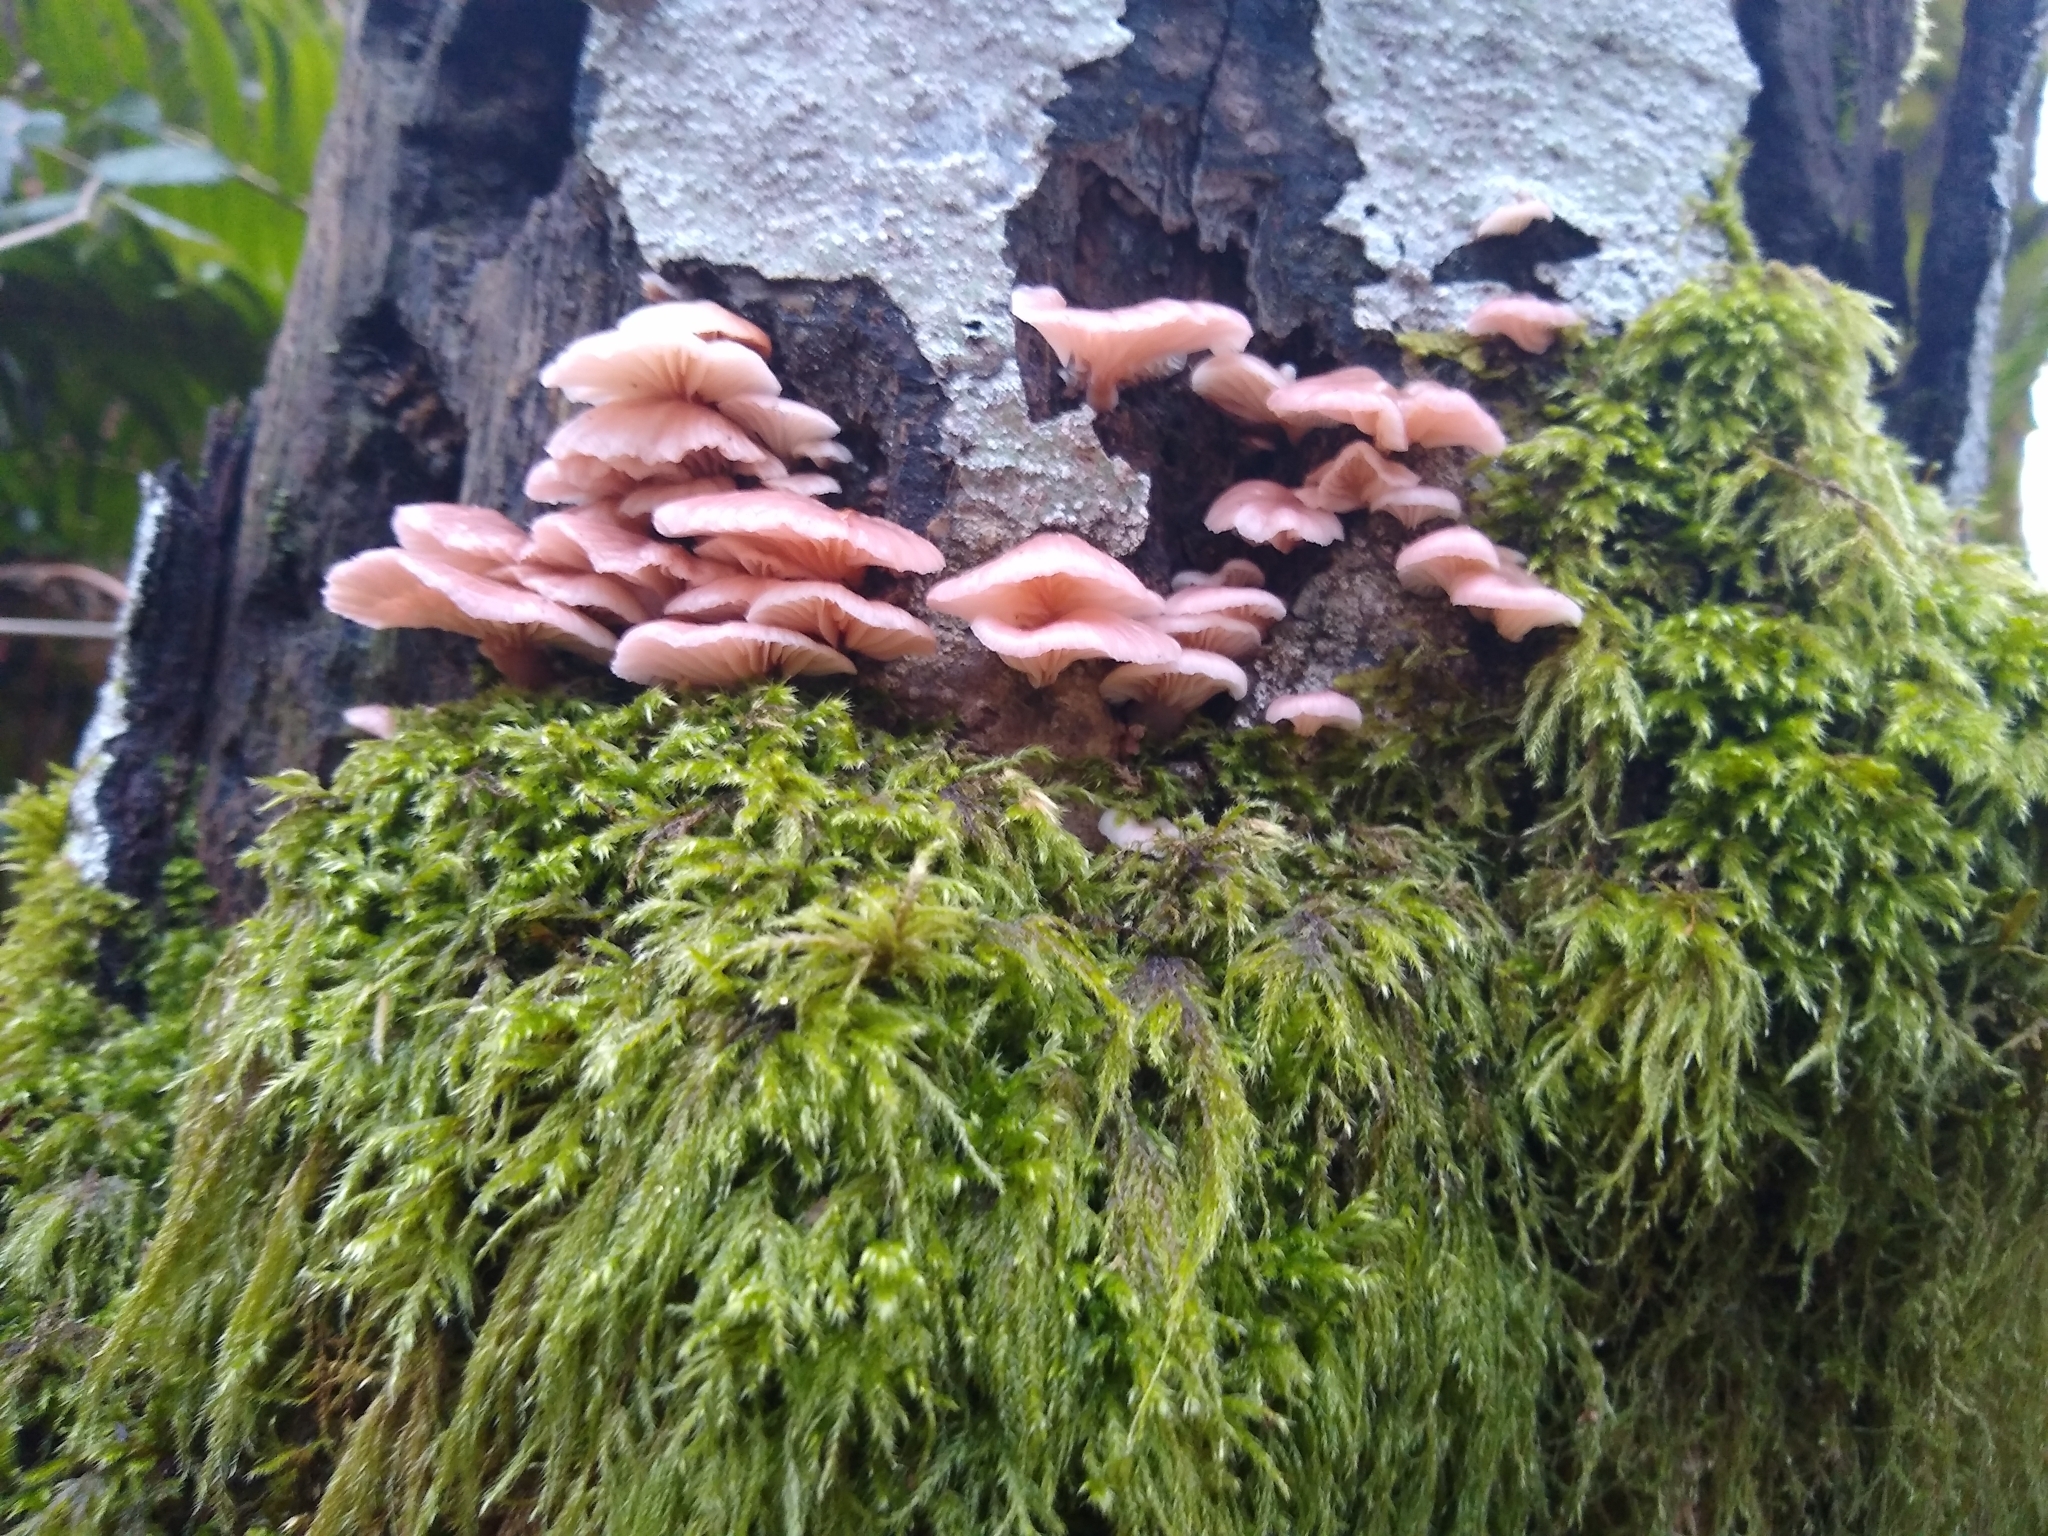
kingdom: Fungi
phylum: Basidiomycota
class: Agaricomycetes
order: Agaricales
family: Mycenaceae
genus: Panellus
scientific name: Panellus longinquus
